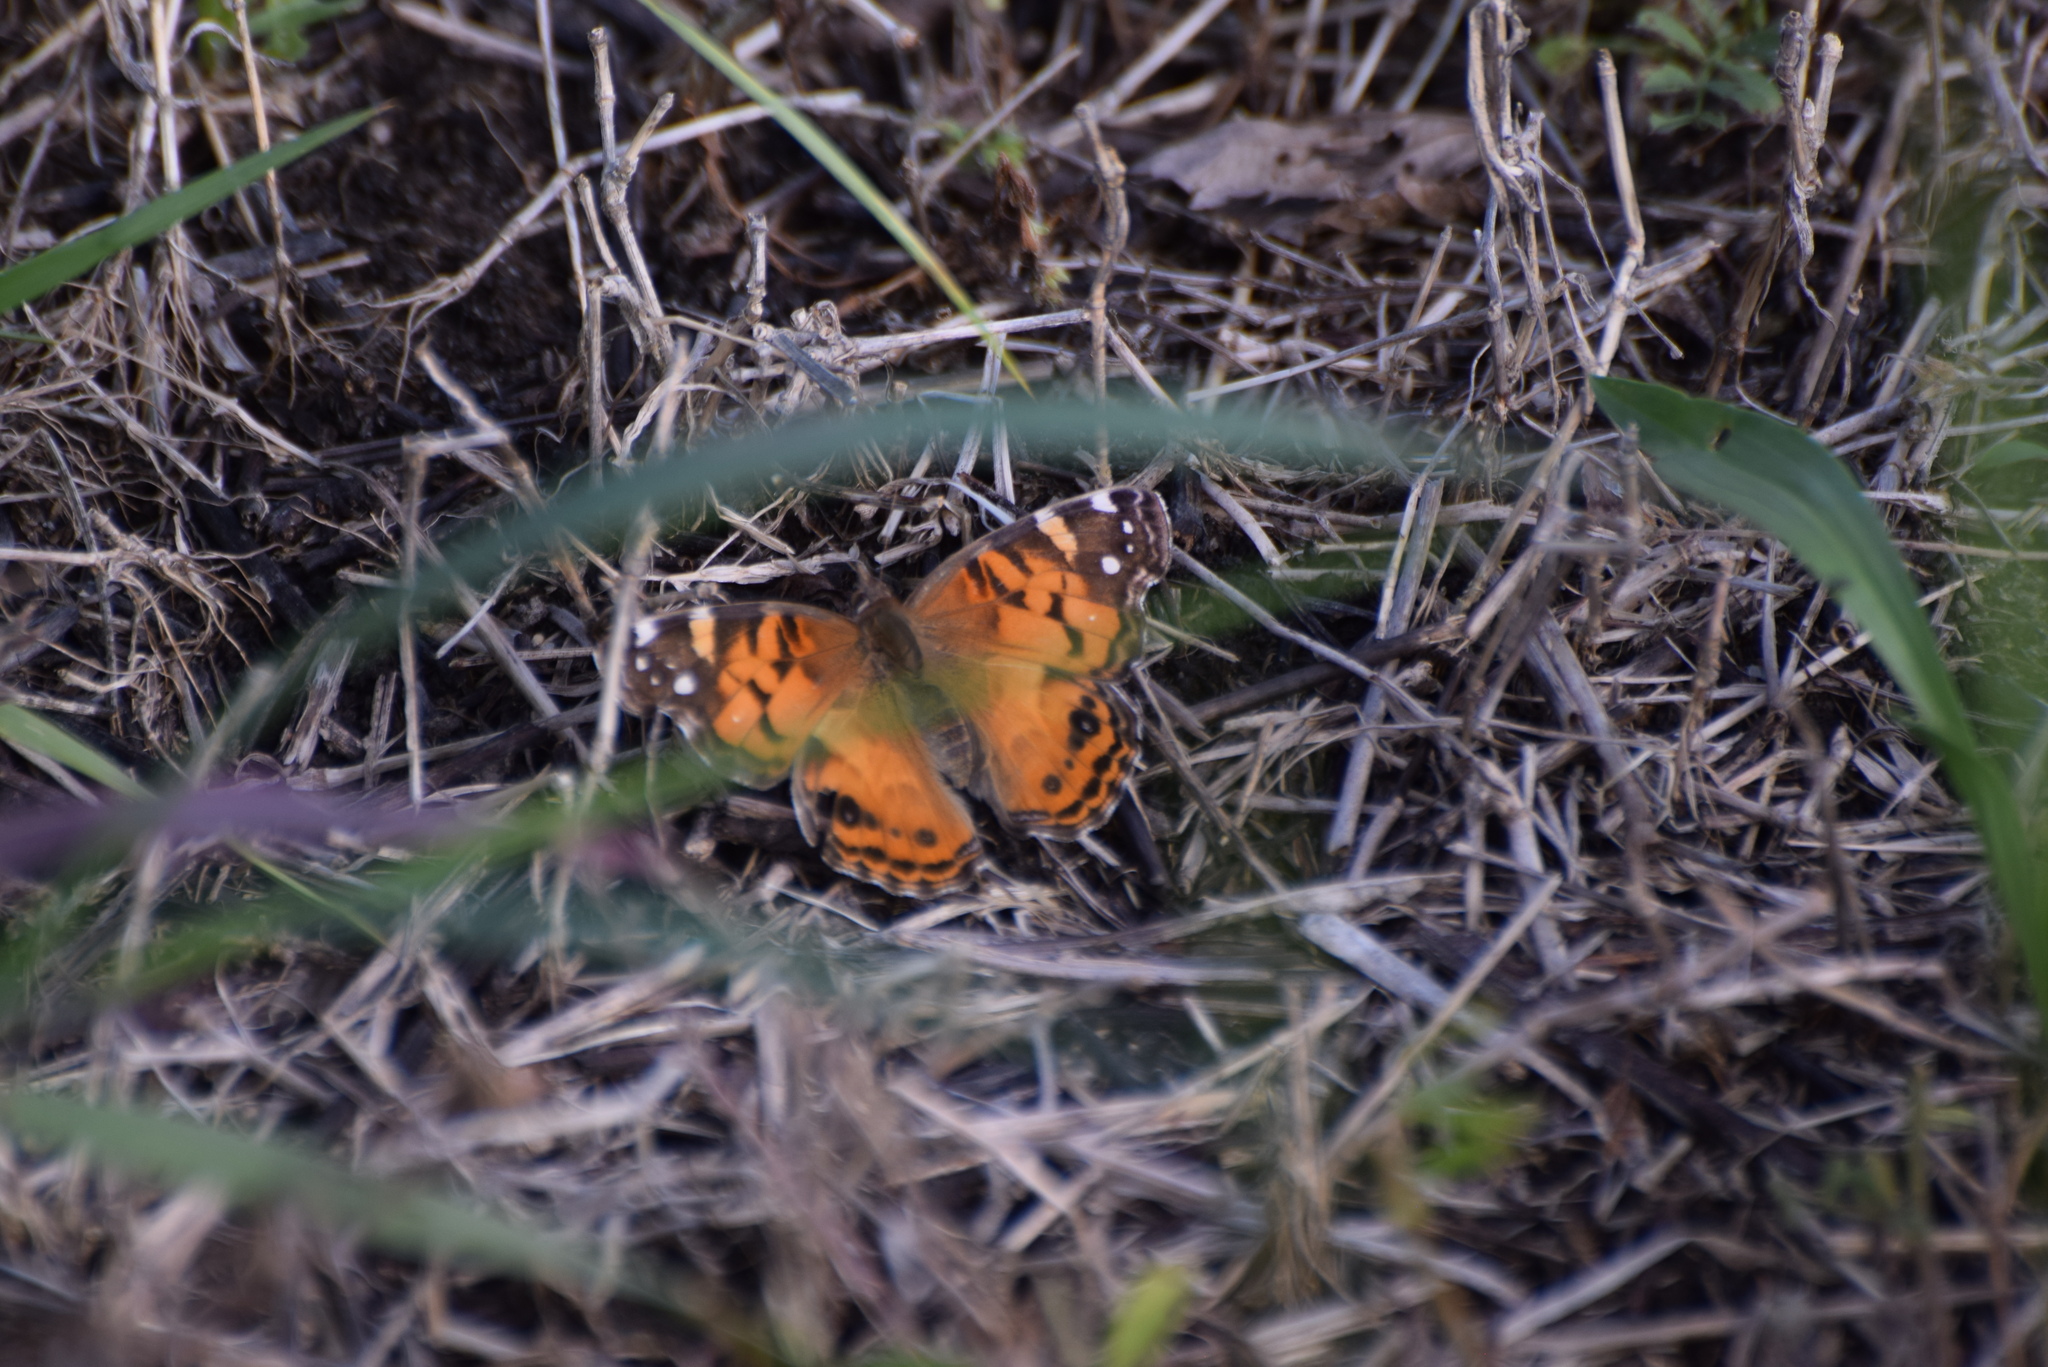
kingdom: Animalia
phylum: Arthropoda
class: Insecta
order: Lepidoptera
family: Nymphalidae
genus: Vanessa
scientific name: Vanessa virginiensis
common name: American lady
